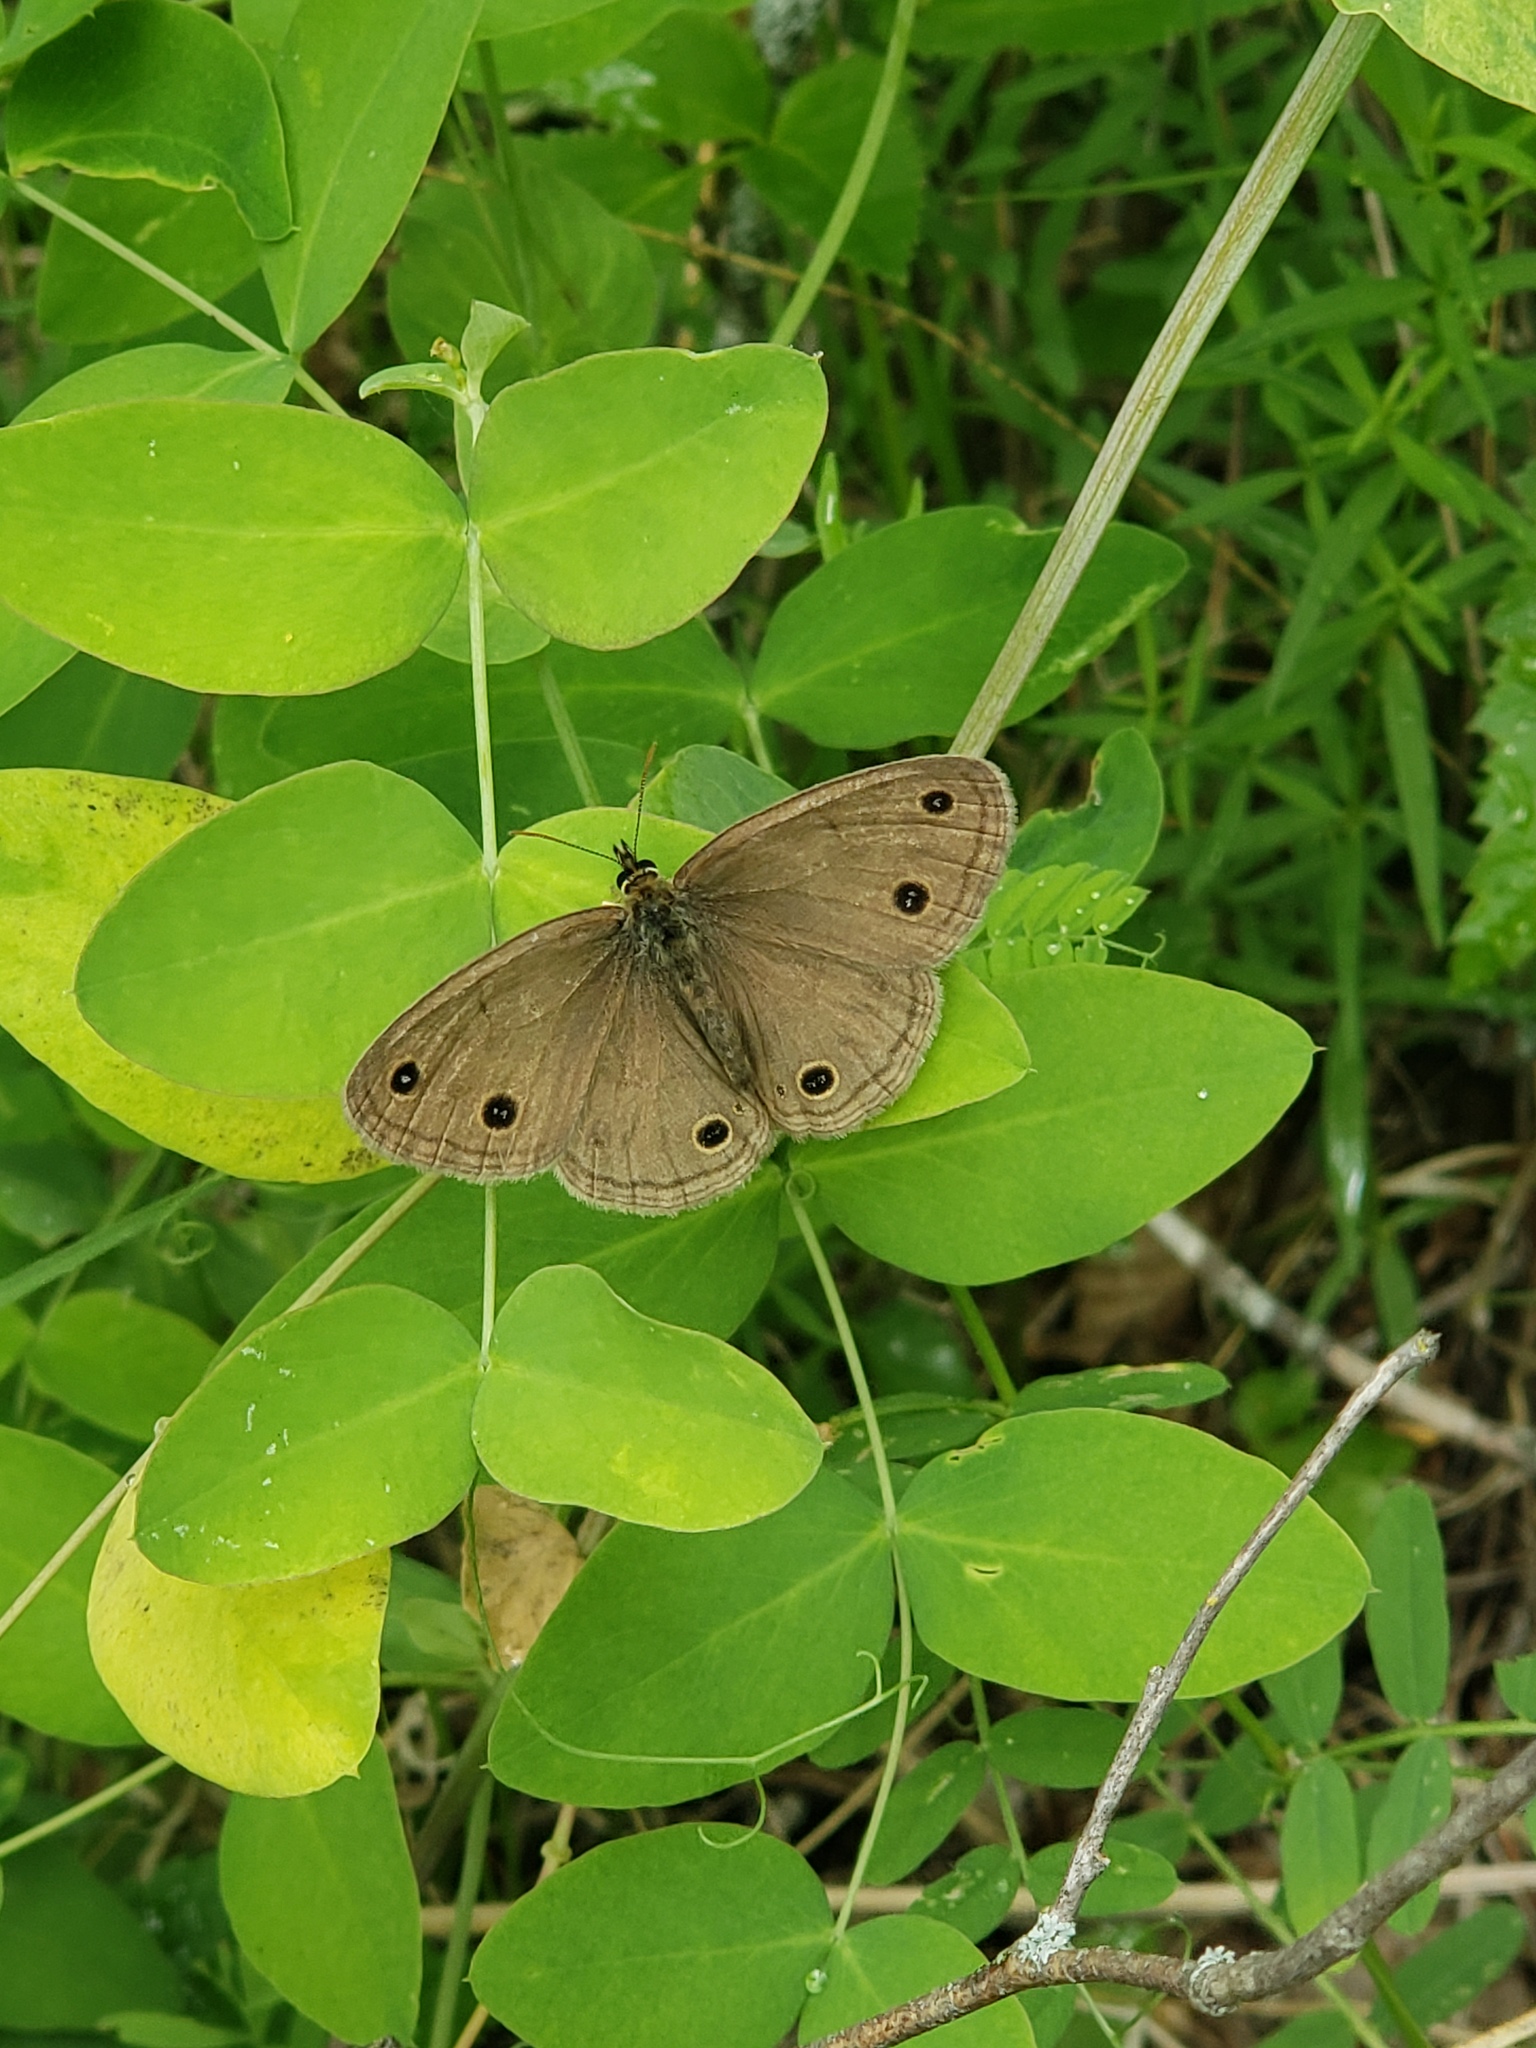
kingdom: Animalia
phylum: Arthropoda
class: Insecta
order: Lepidoptera
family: Nymphalidae
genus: Euptychia
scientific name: Euptychia cymela
